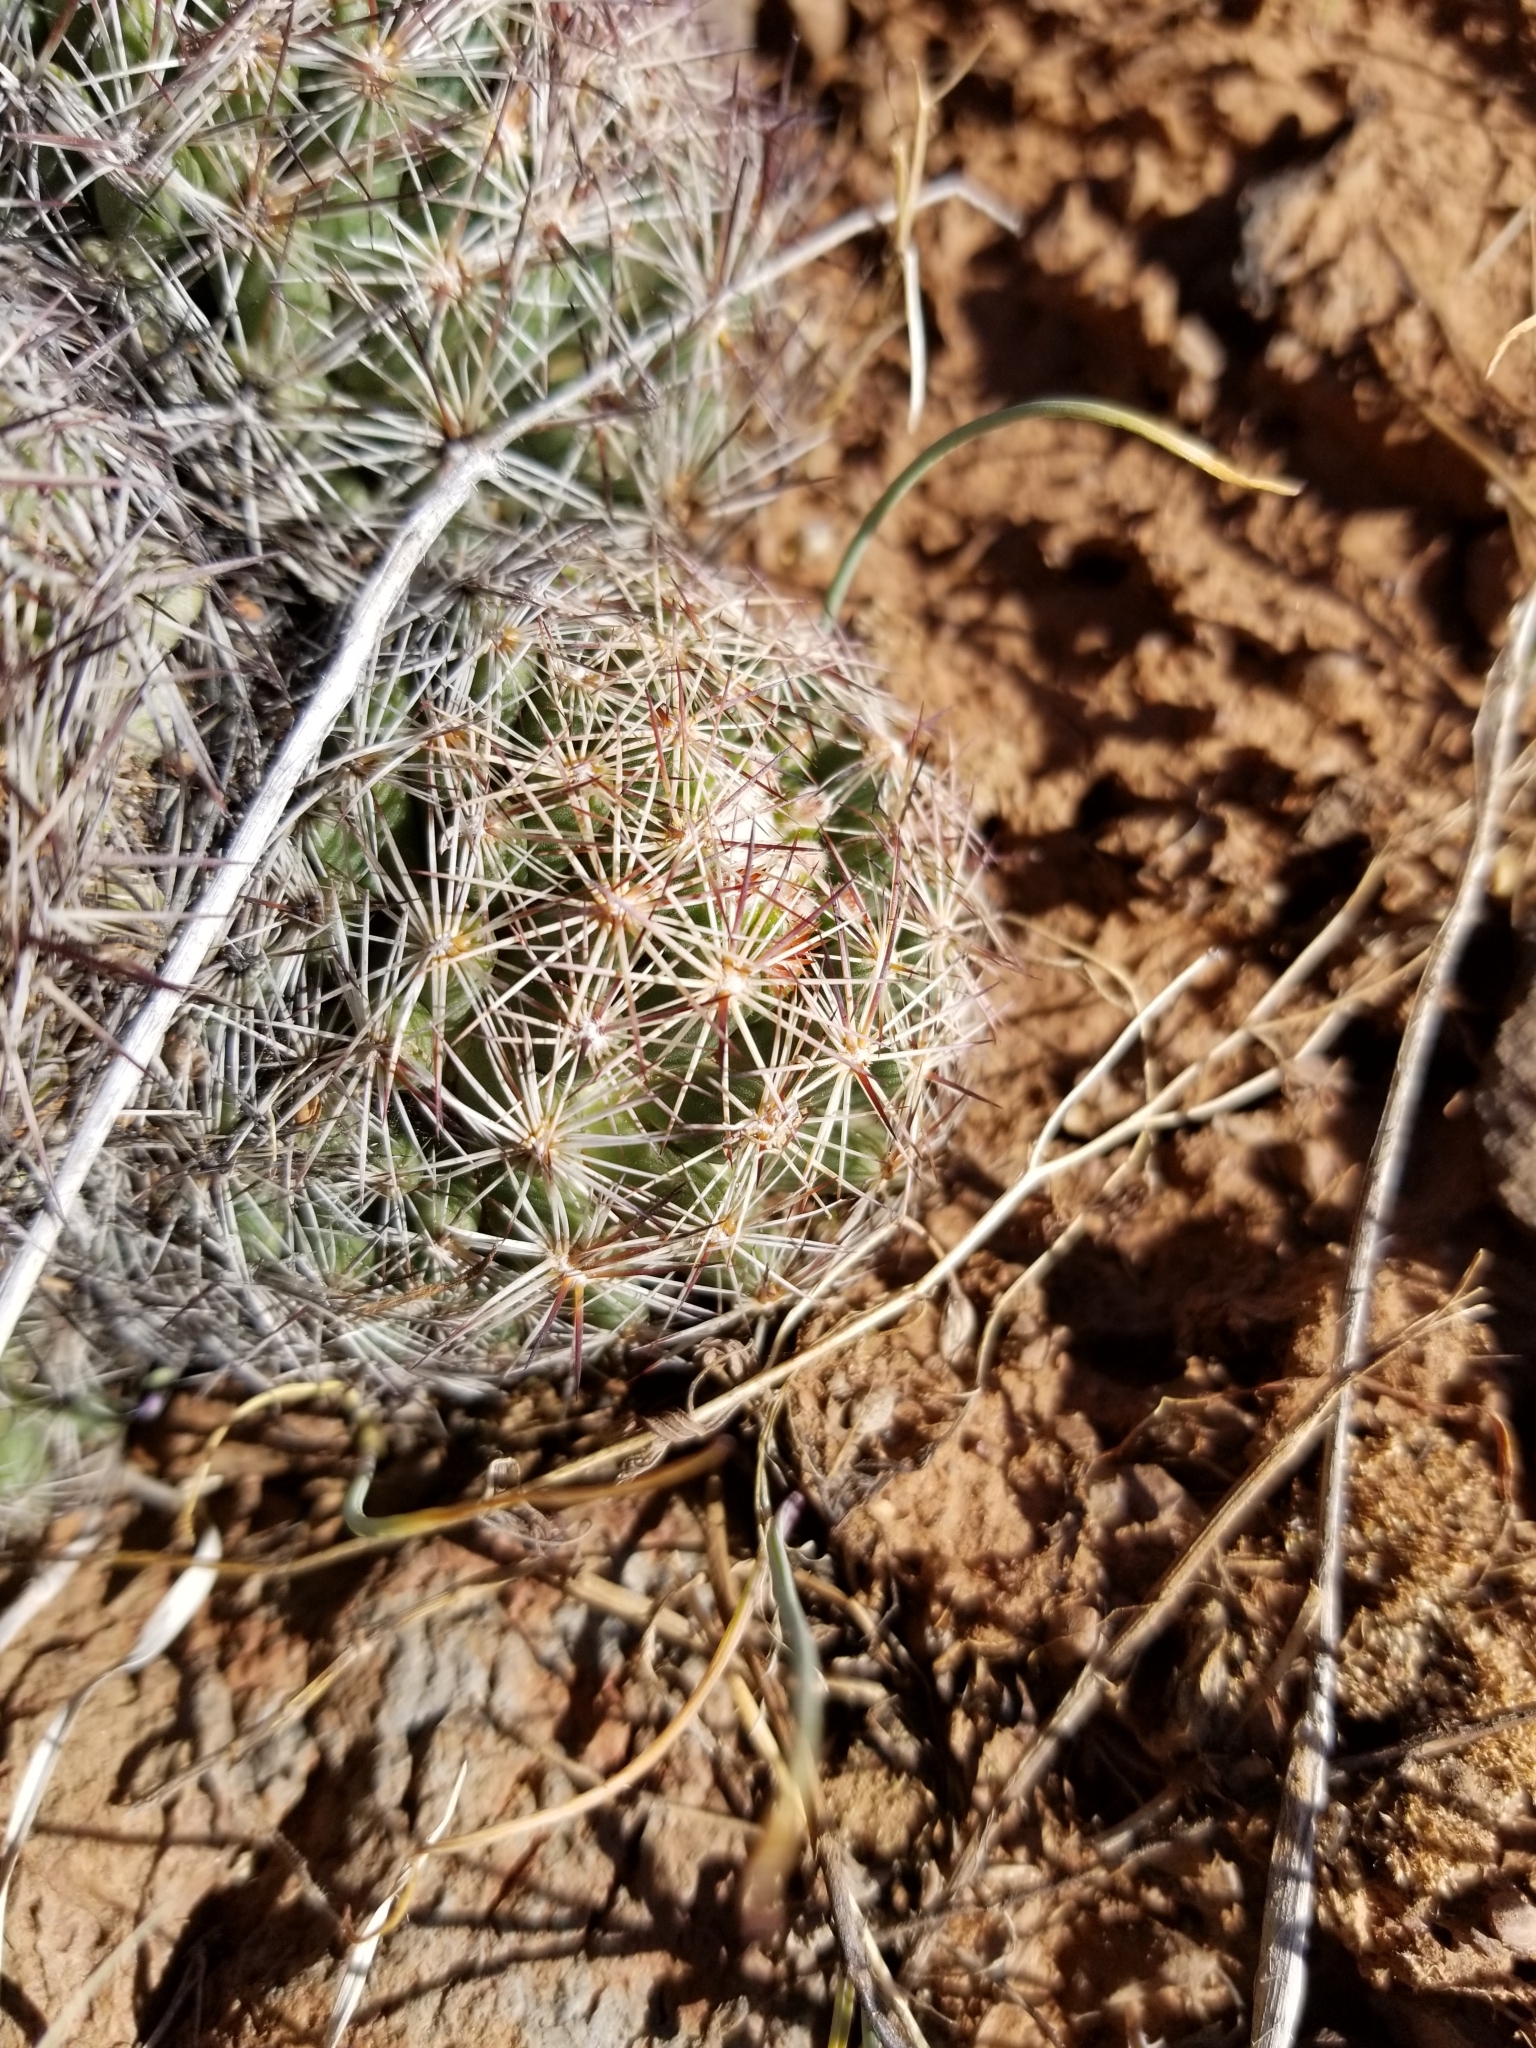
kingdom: Plantae
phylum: Tracheophyta
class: Magnoliopsida
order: Caryophyllales
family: Cactaceae
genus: Pelecyphora
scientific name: Pelecyphora vivipara
